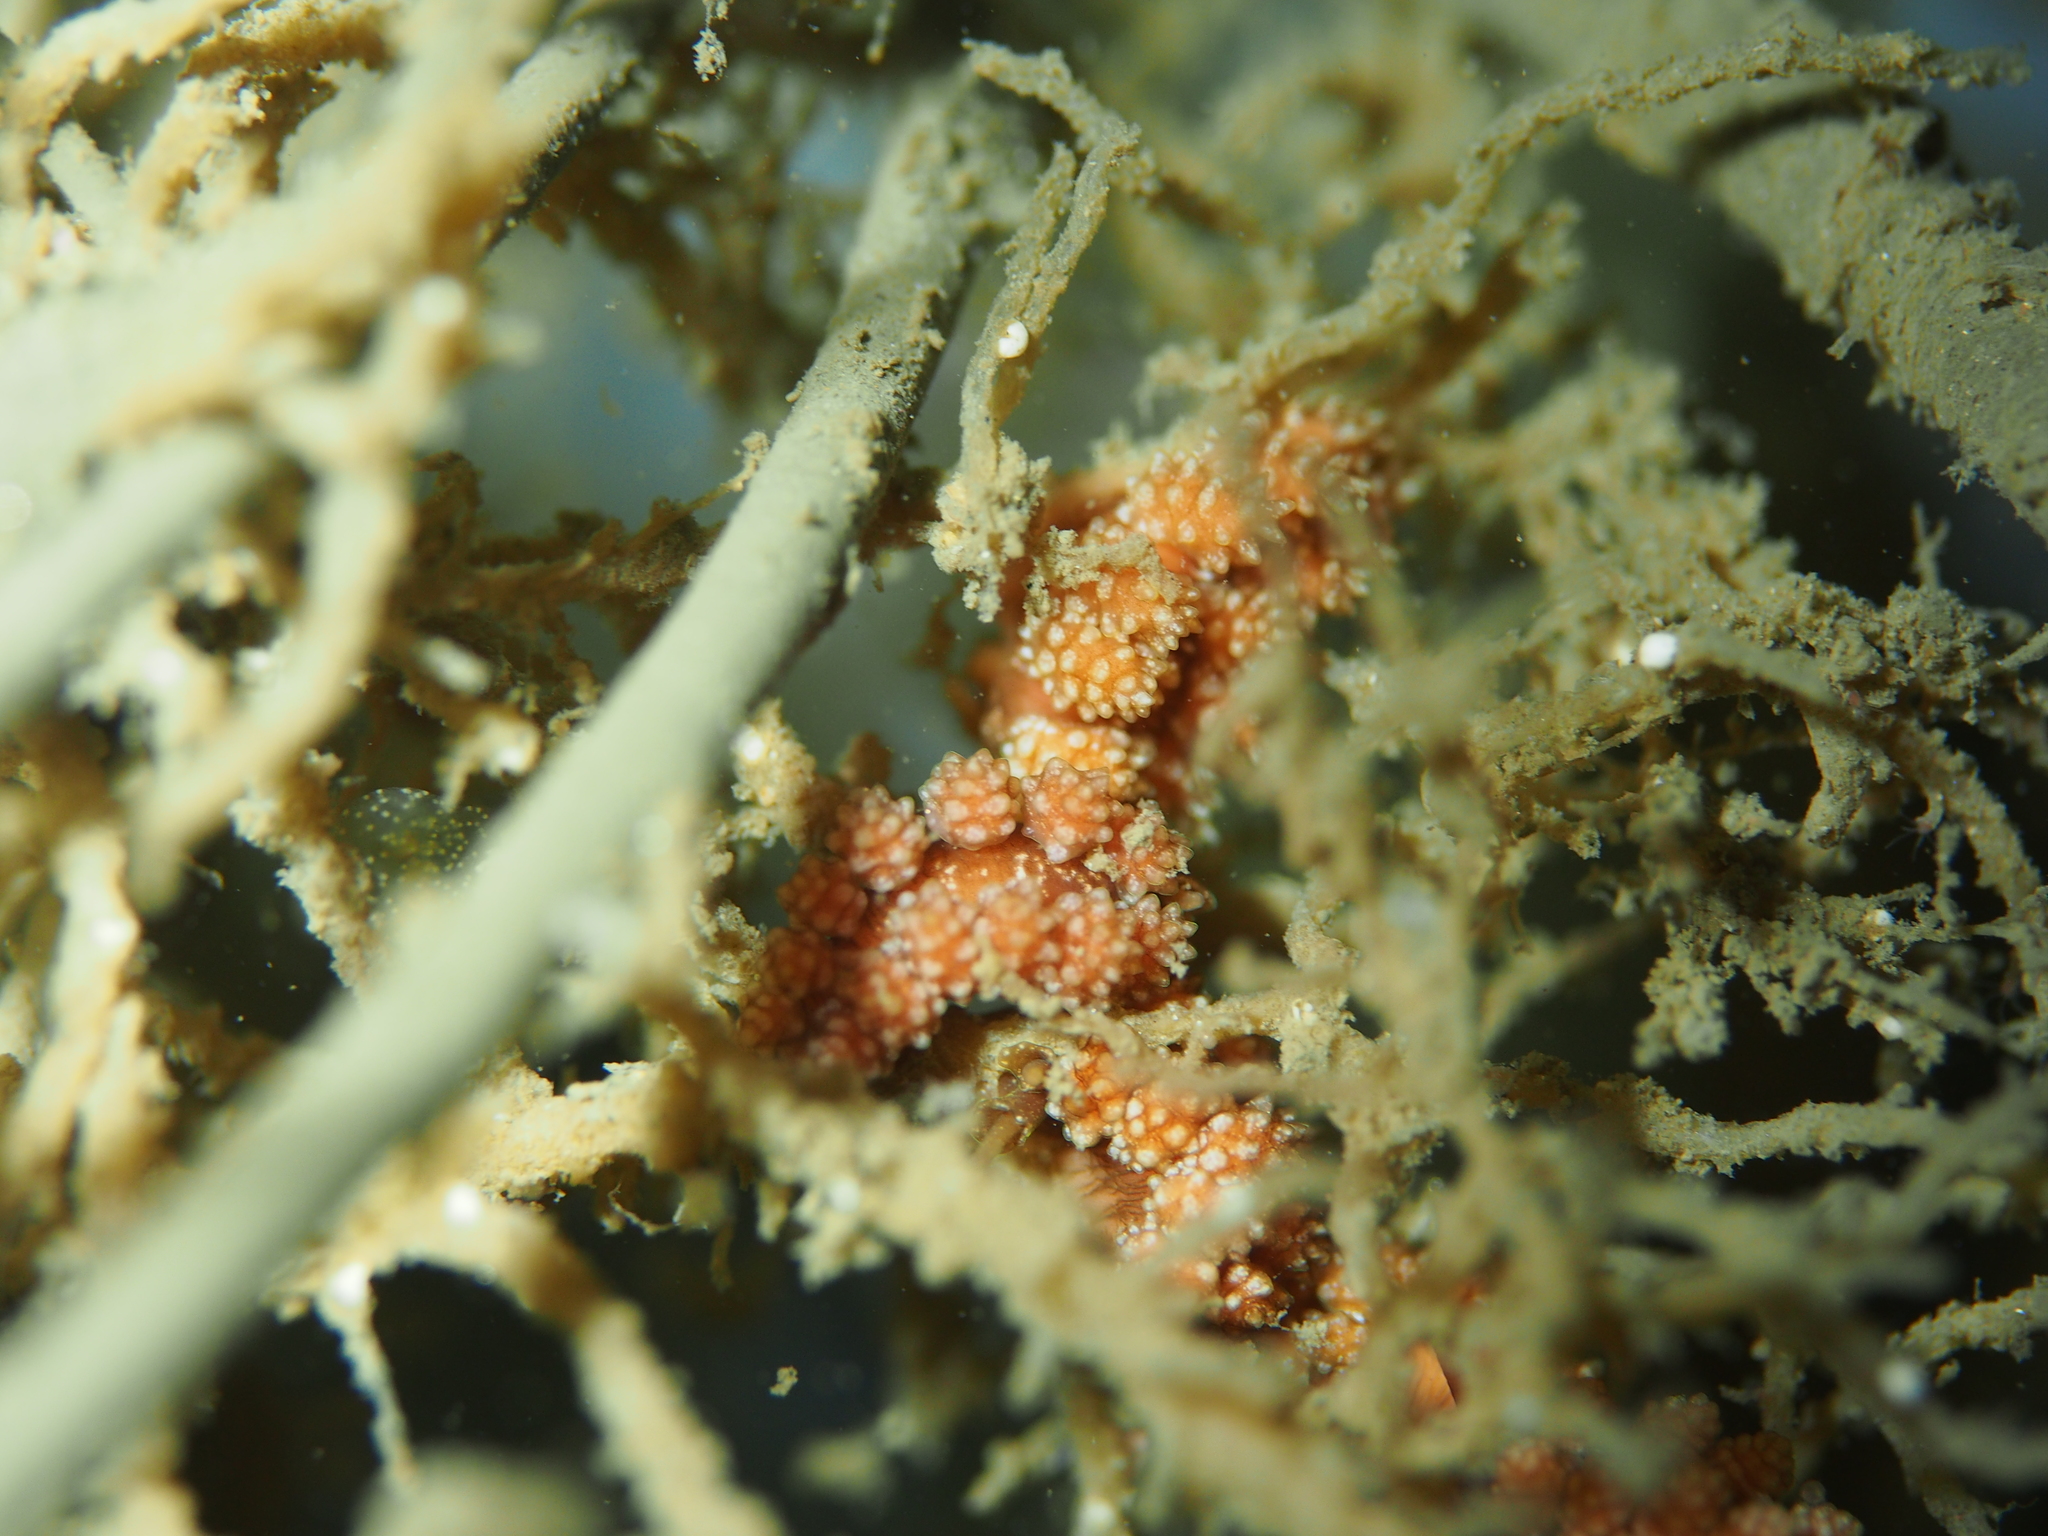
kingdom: Animalia
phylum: Mollusca
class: Gastropoda
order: Nudibranchia
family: Dotidae
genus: Doto
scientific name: Doto fragilis
